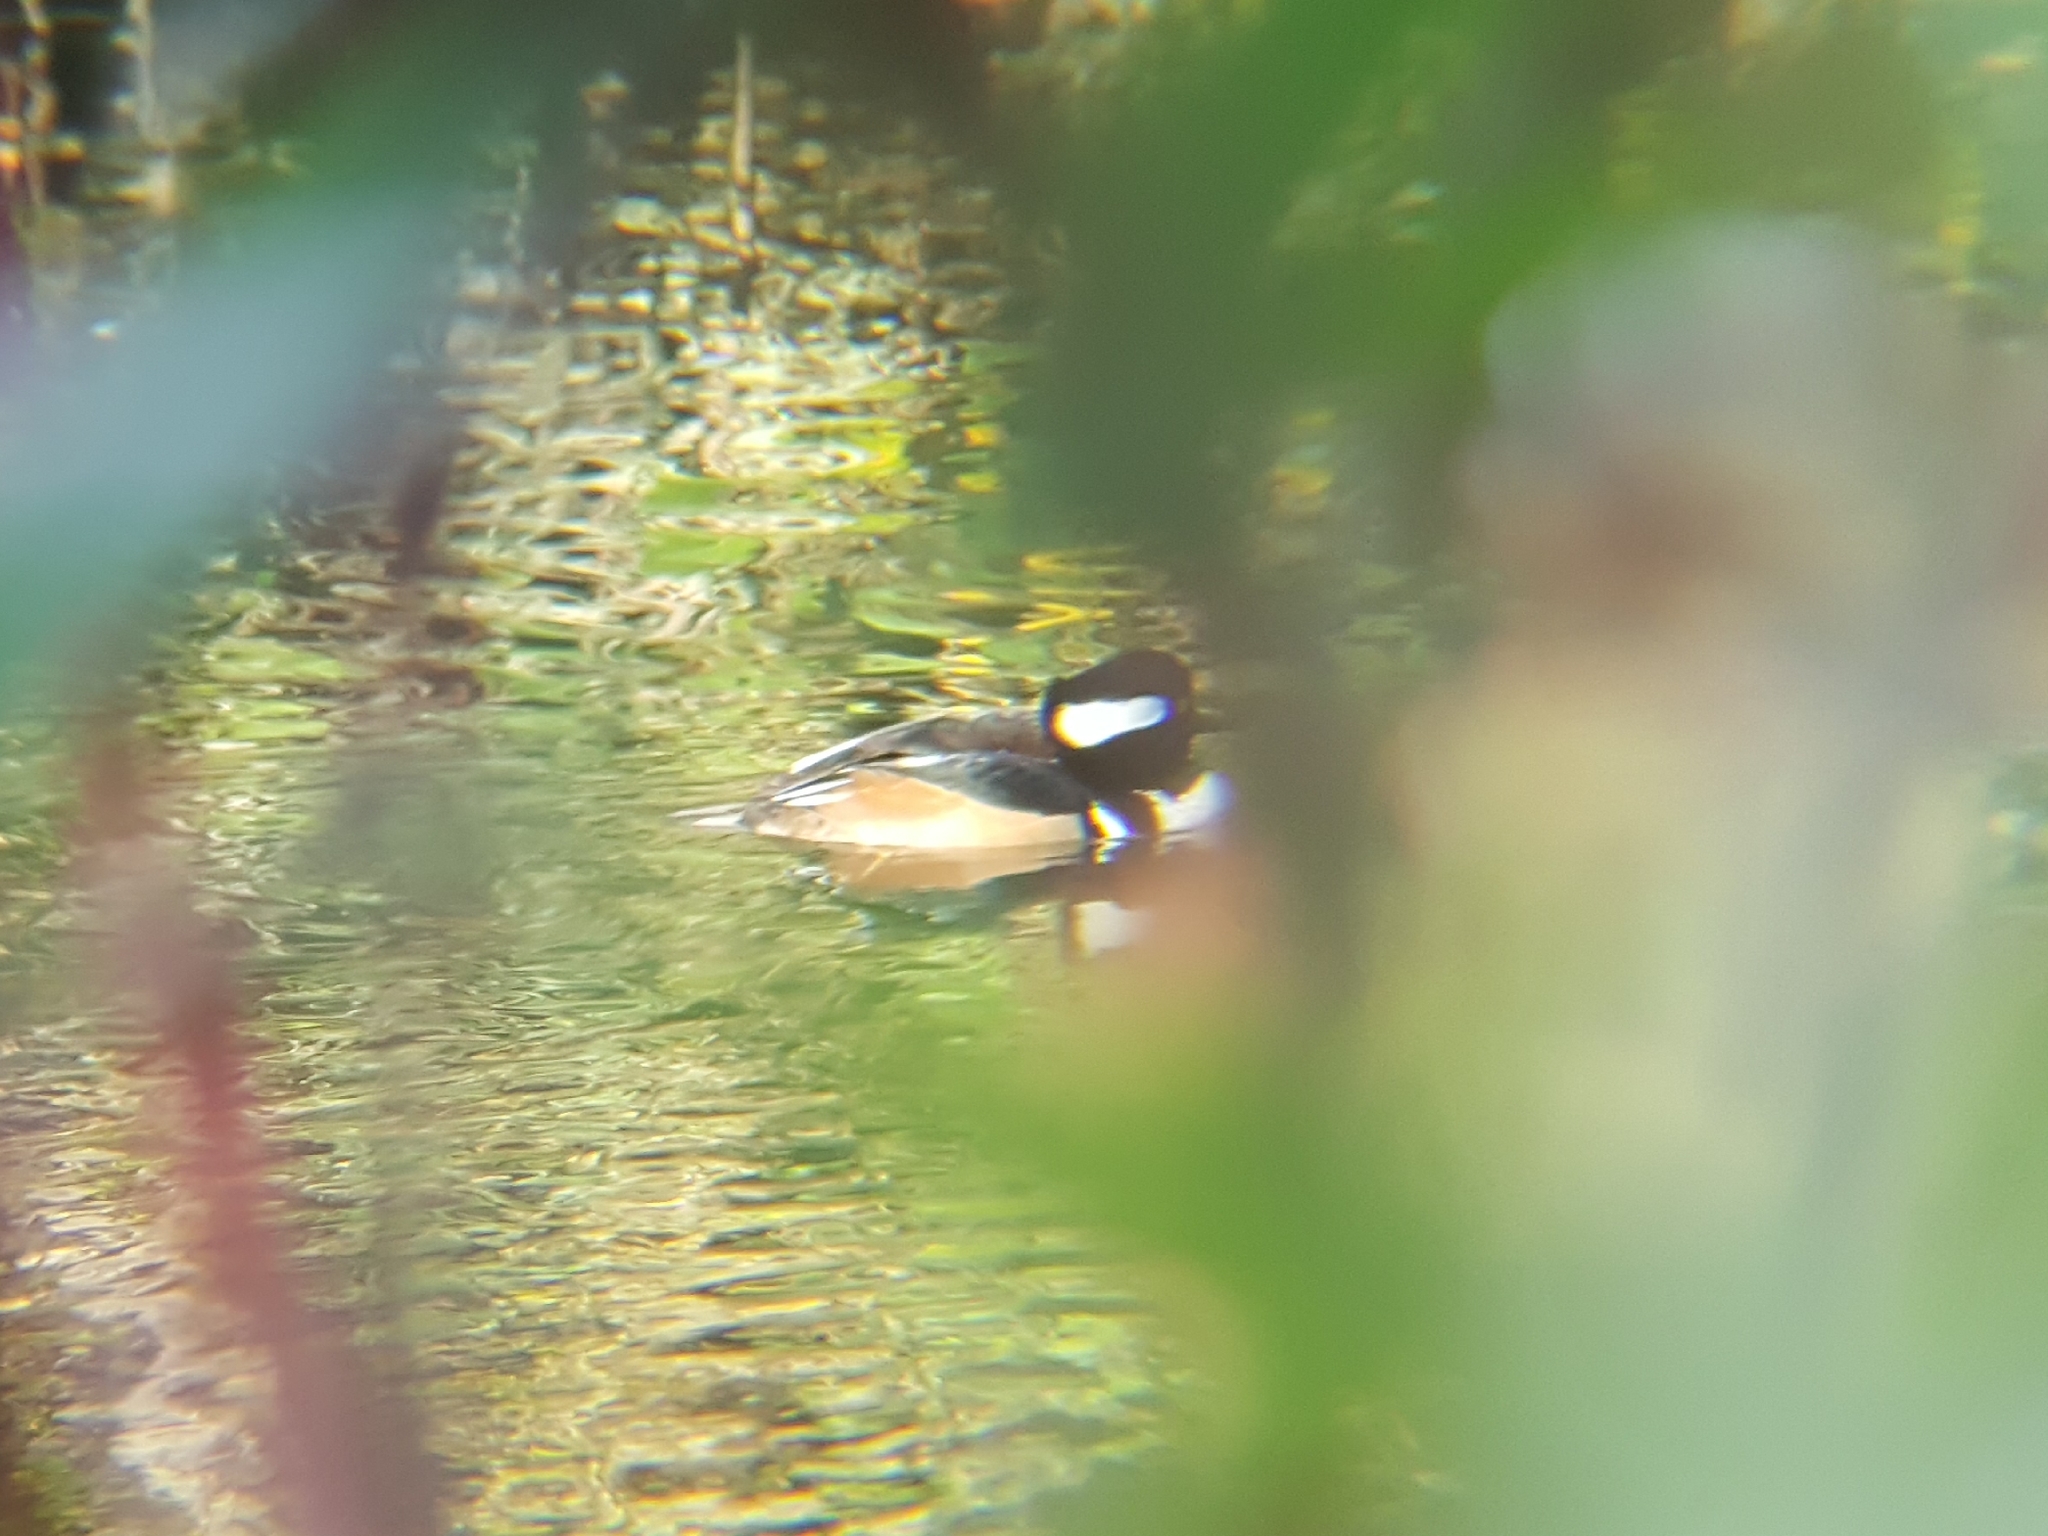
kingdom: Animalia
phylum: Chordata
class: Aves
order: Anseriformes
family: Anatidae
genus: Lophodytes
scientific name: Lophodytes cucullatus
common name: Hooded merganser
